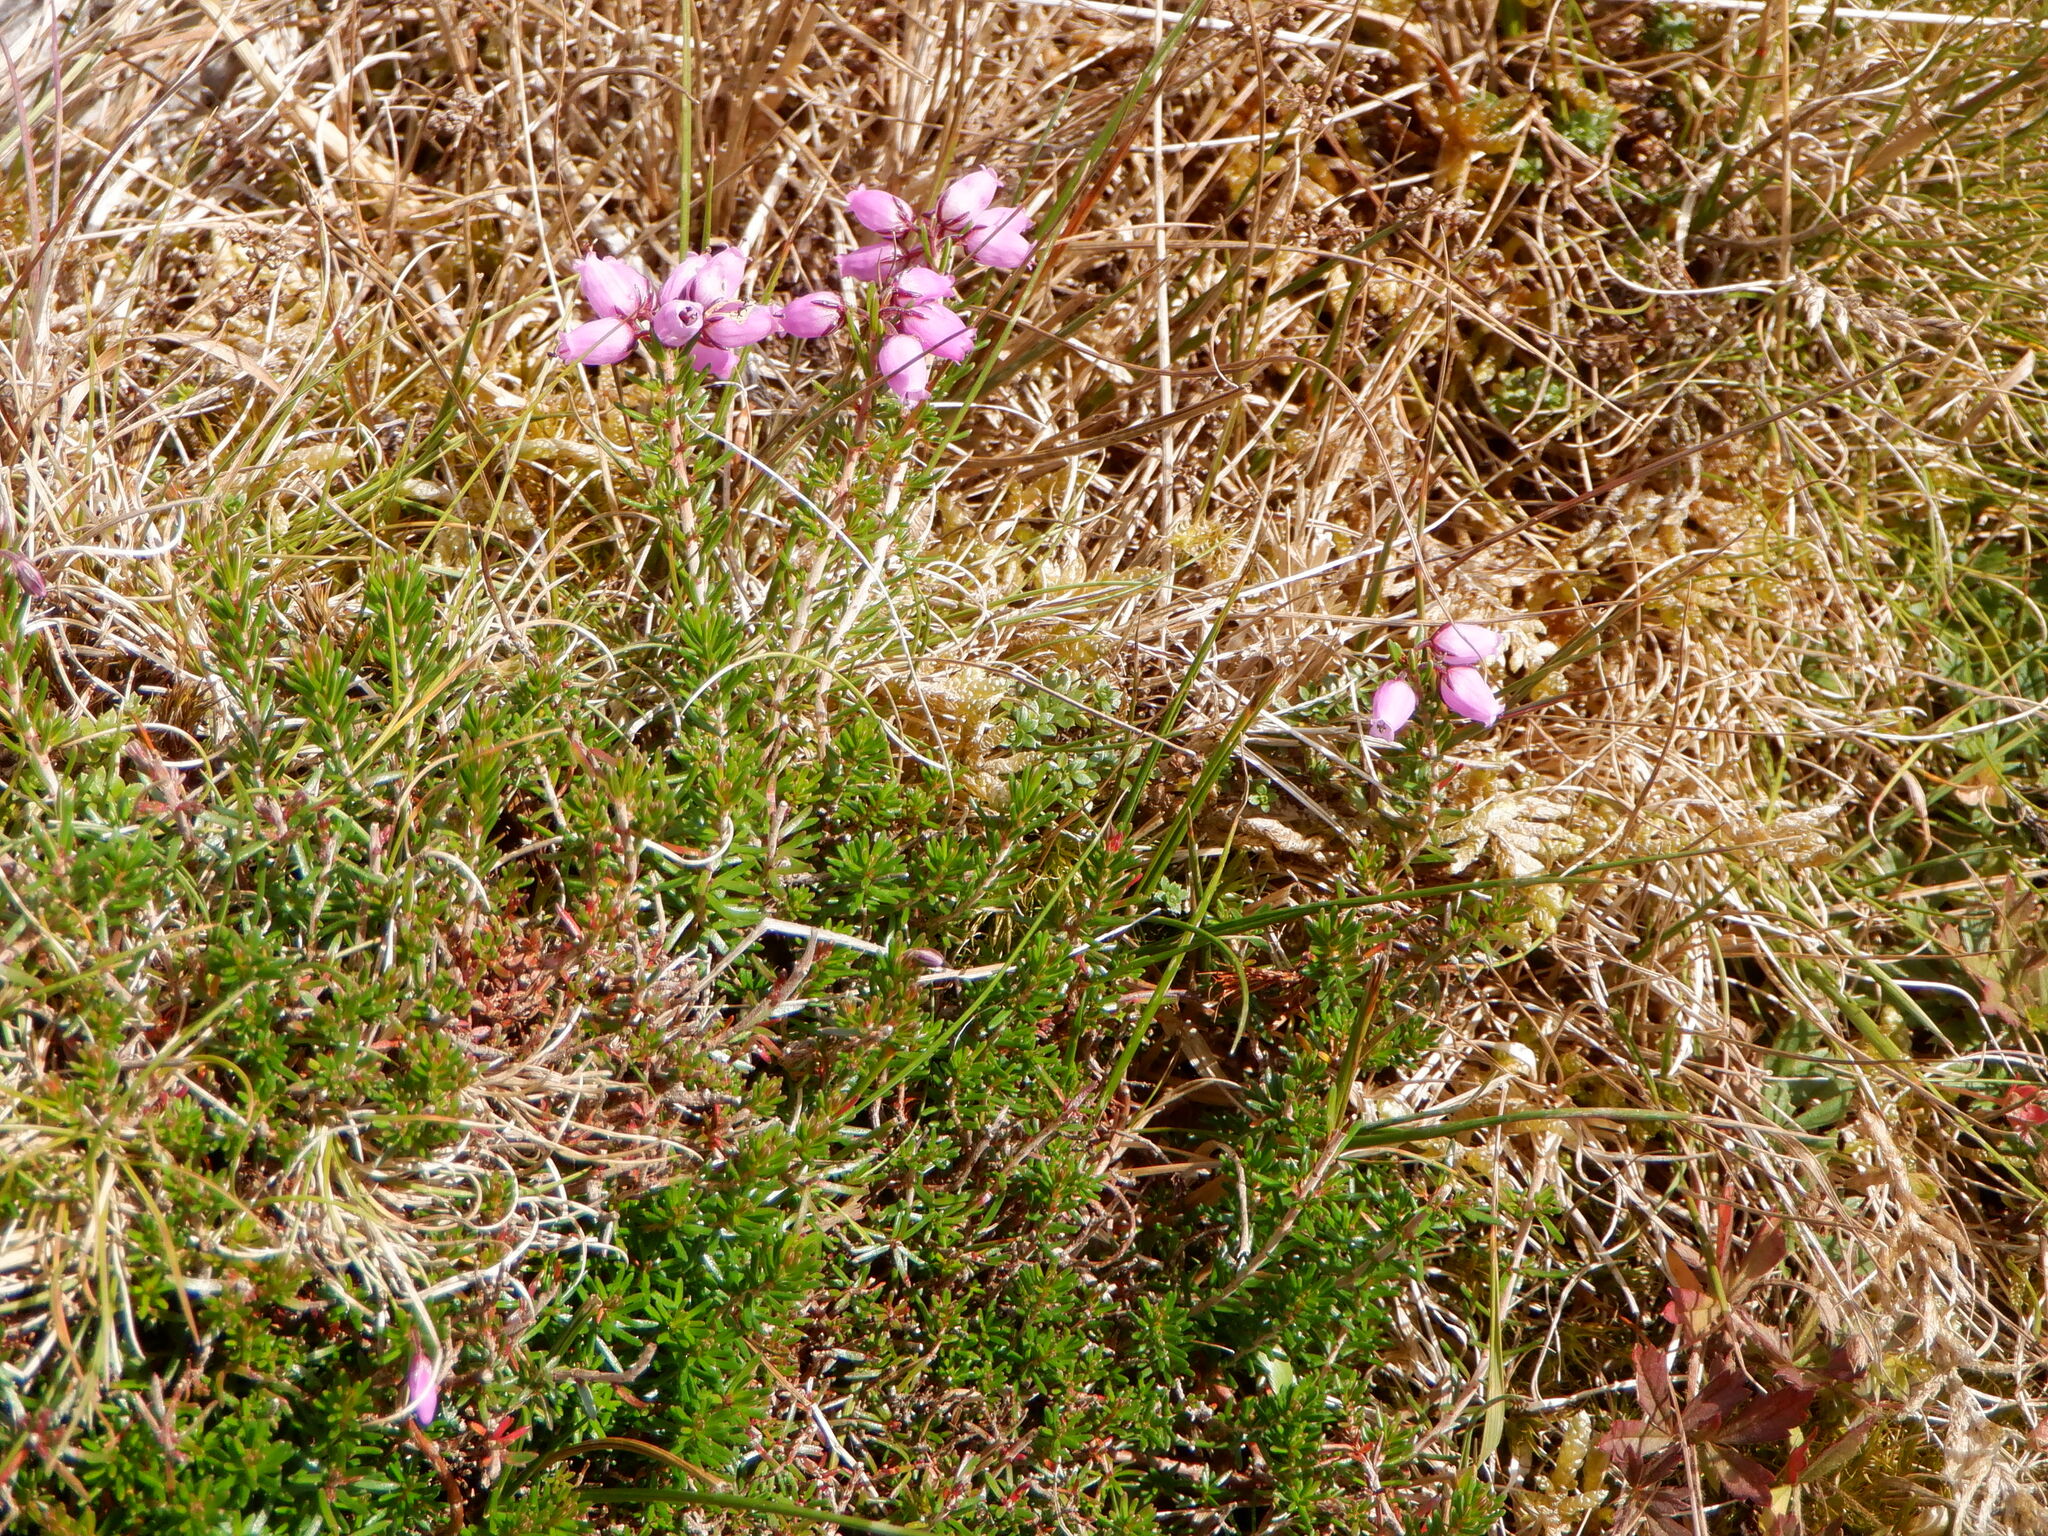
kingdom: Plantae
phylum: Tracheophyta
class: Magnoliopsida
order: Ericales
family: Ericaceae
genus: Erica
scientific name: Erica cinerea
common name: Bell heather
